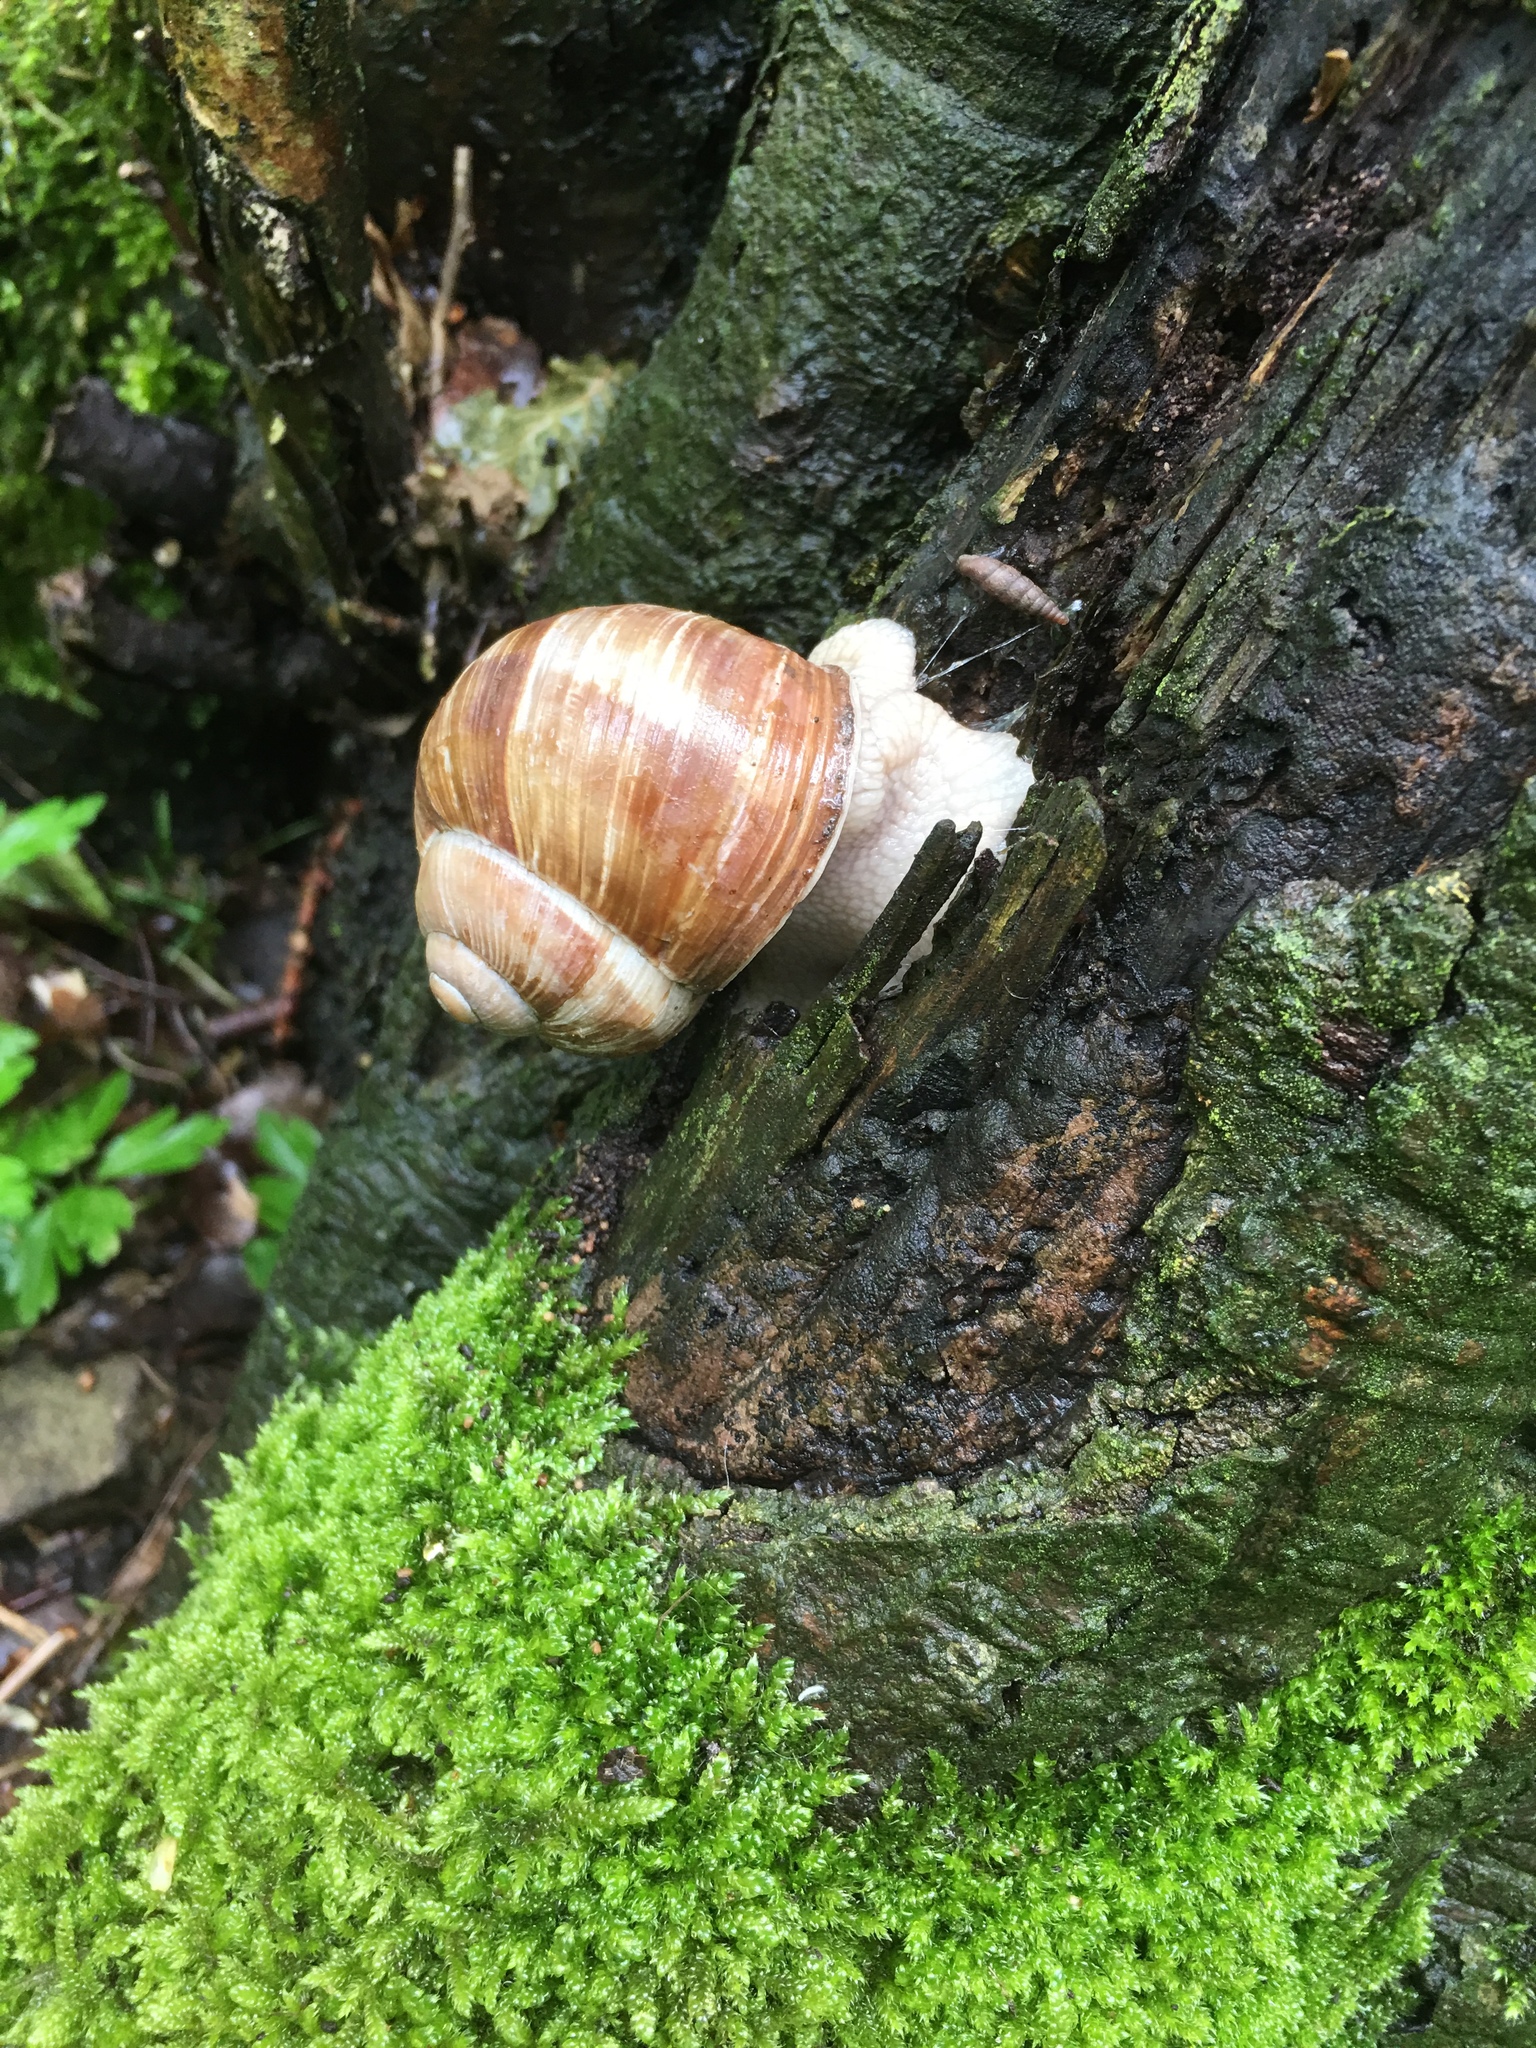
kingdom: Animalia
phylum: Mollusca
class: Gastropoda
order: Stylommatophora
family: Helicidae
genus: Helix
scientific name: Helix pomatia
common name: Roman snail
